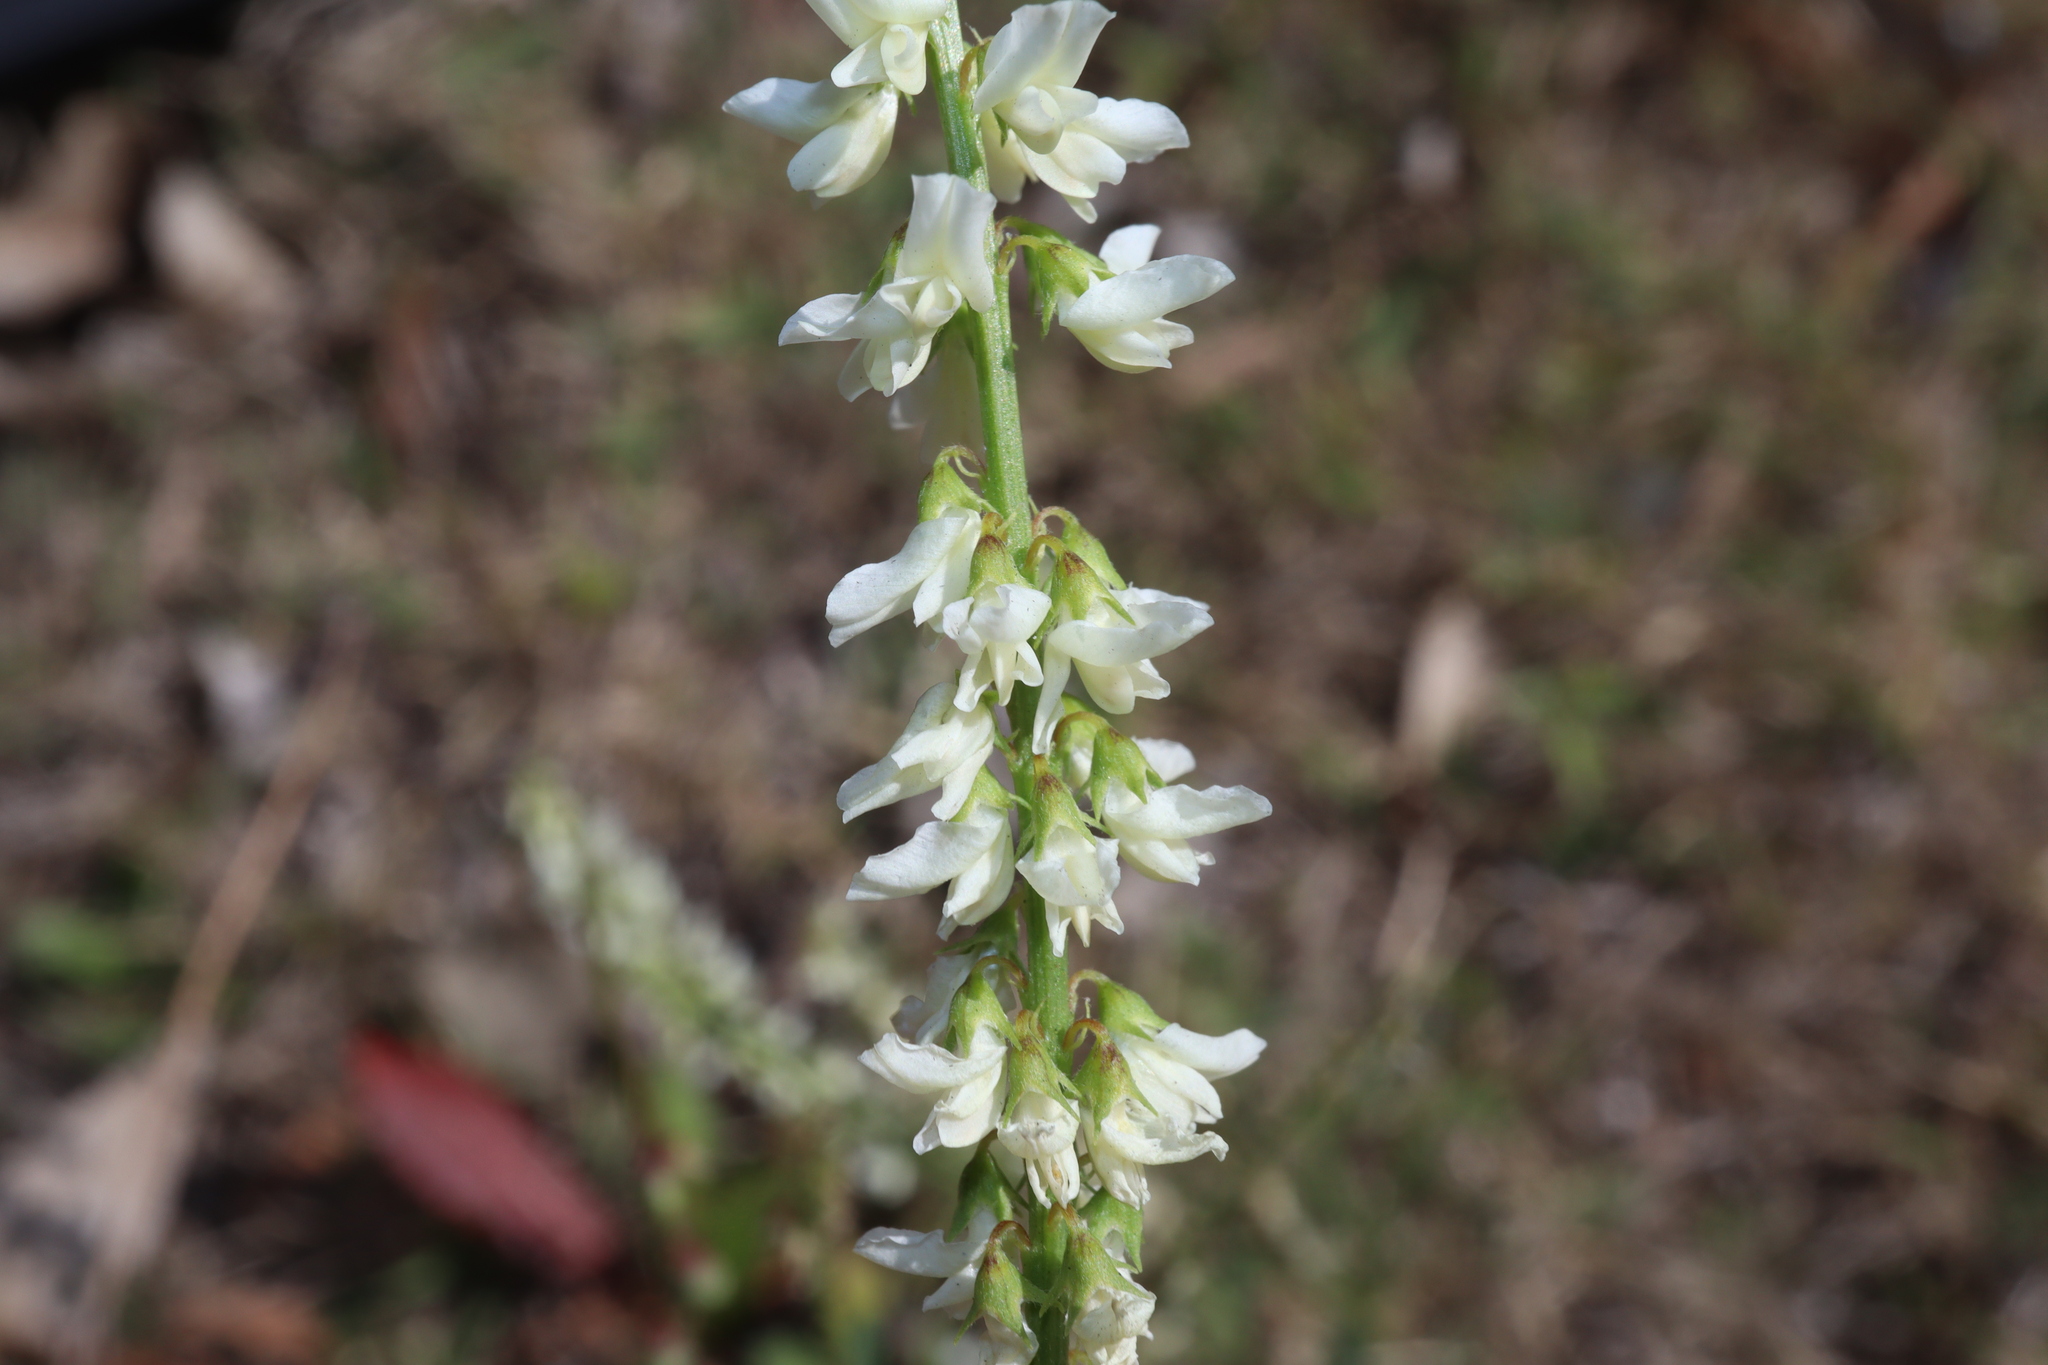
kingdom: Plantae
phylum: Tracheophyta
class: Magnoliopsida
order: Fabales
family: Fabaceae
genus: Melilotus
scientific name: Melilotus albus
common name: White melilot
